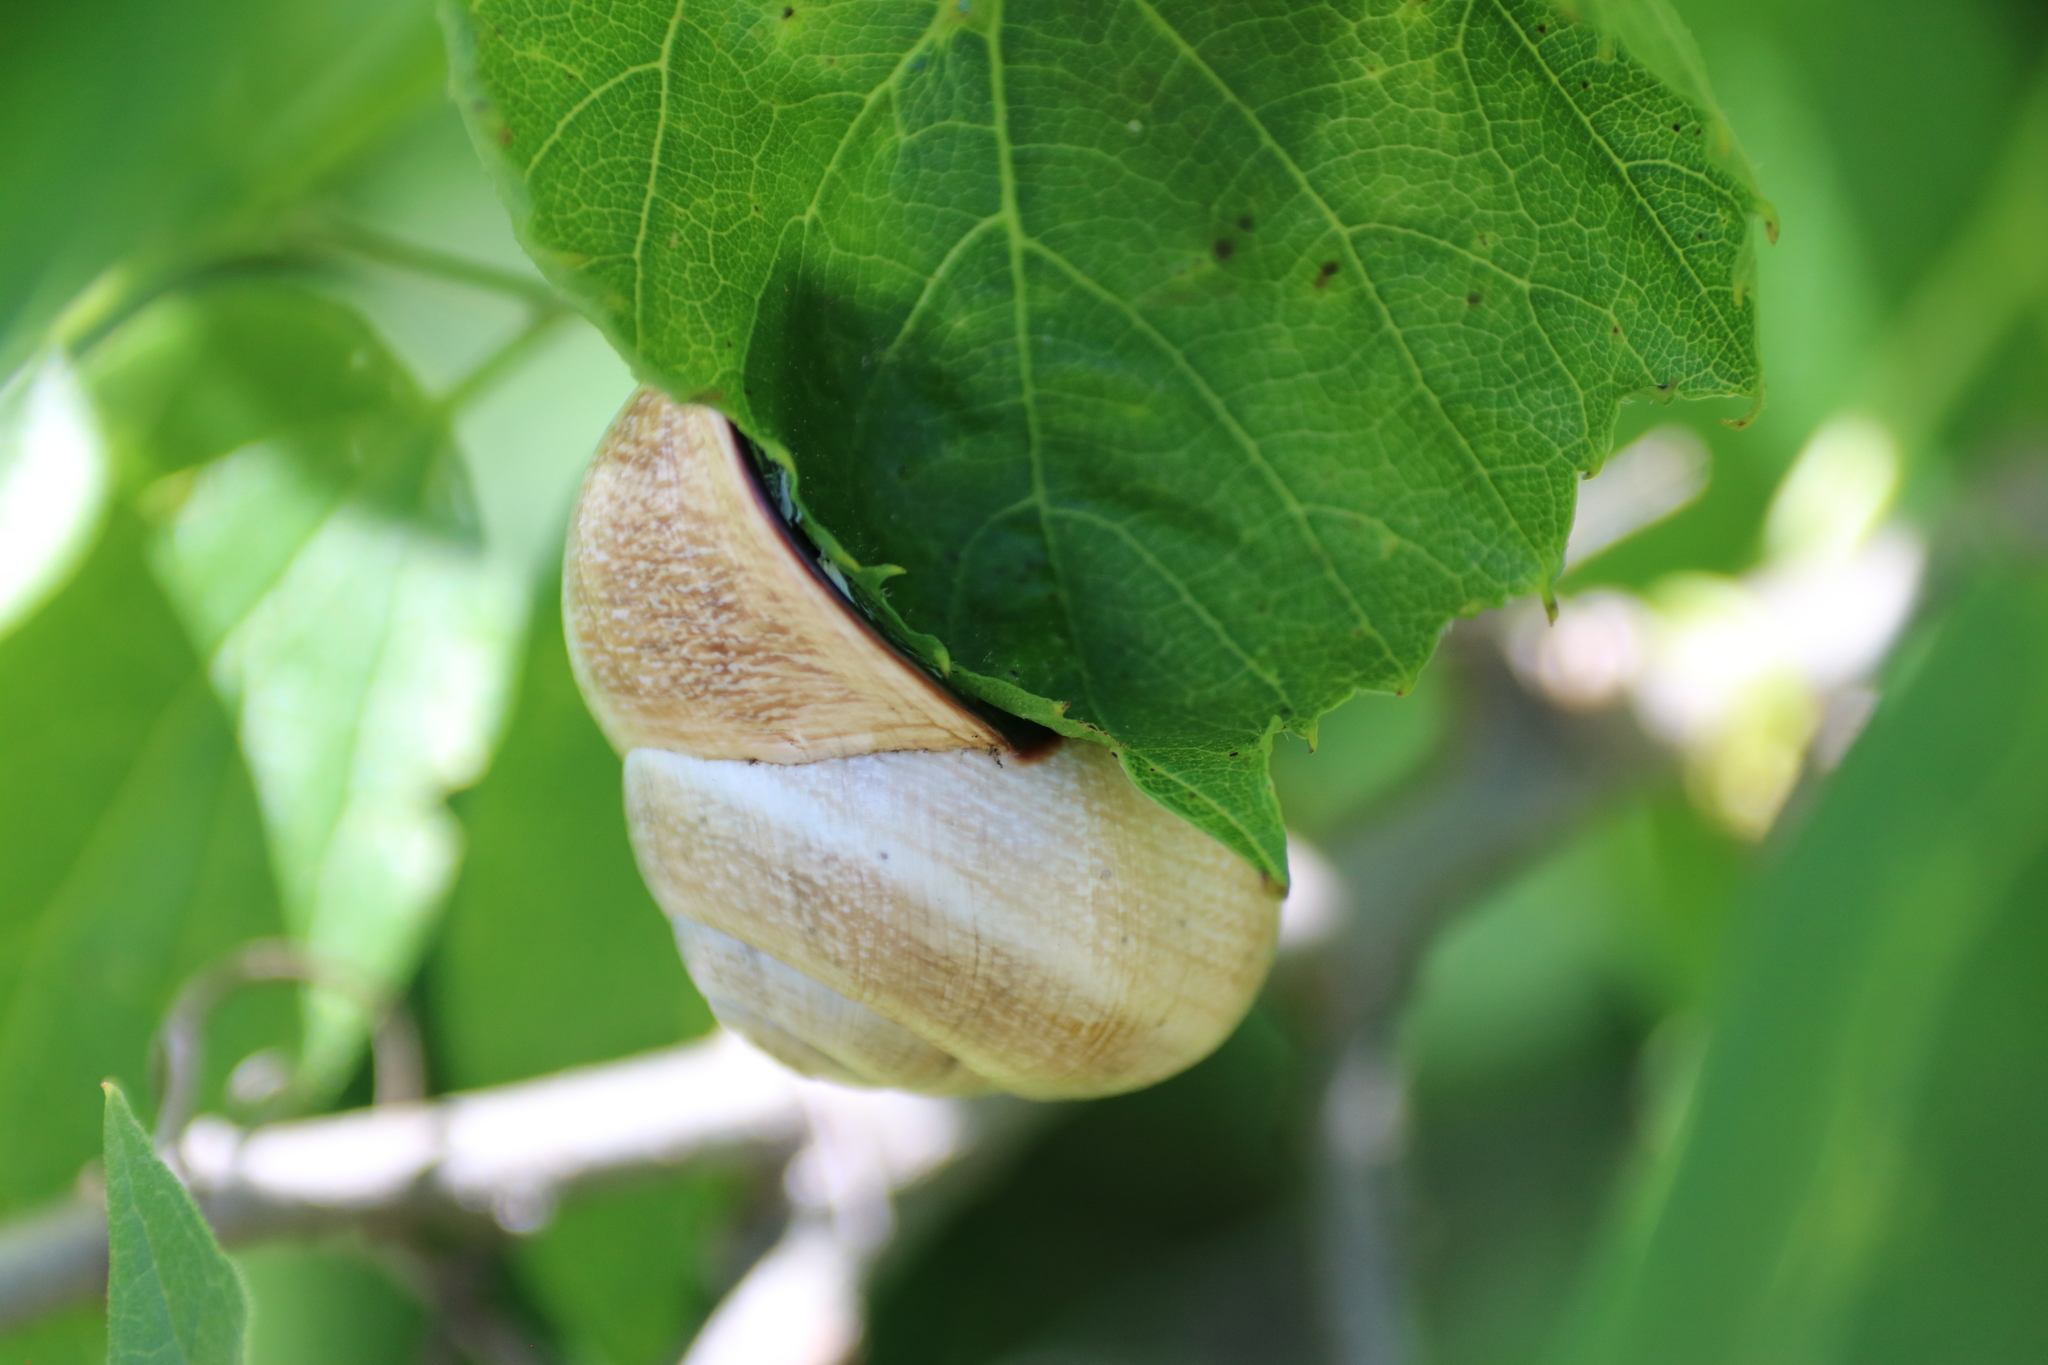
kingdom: Animalia
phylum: Mollusca
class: Gastropoda
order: Stylommatophora
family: Helicidae
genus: Otala
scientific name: Otala lactea
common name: Milk snail
